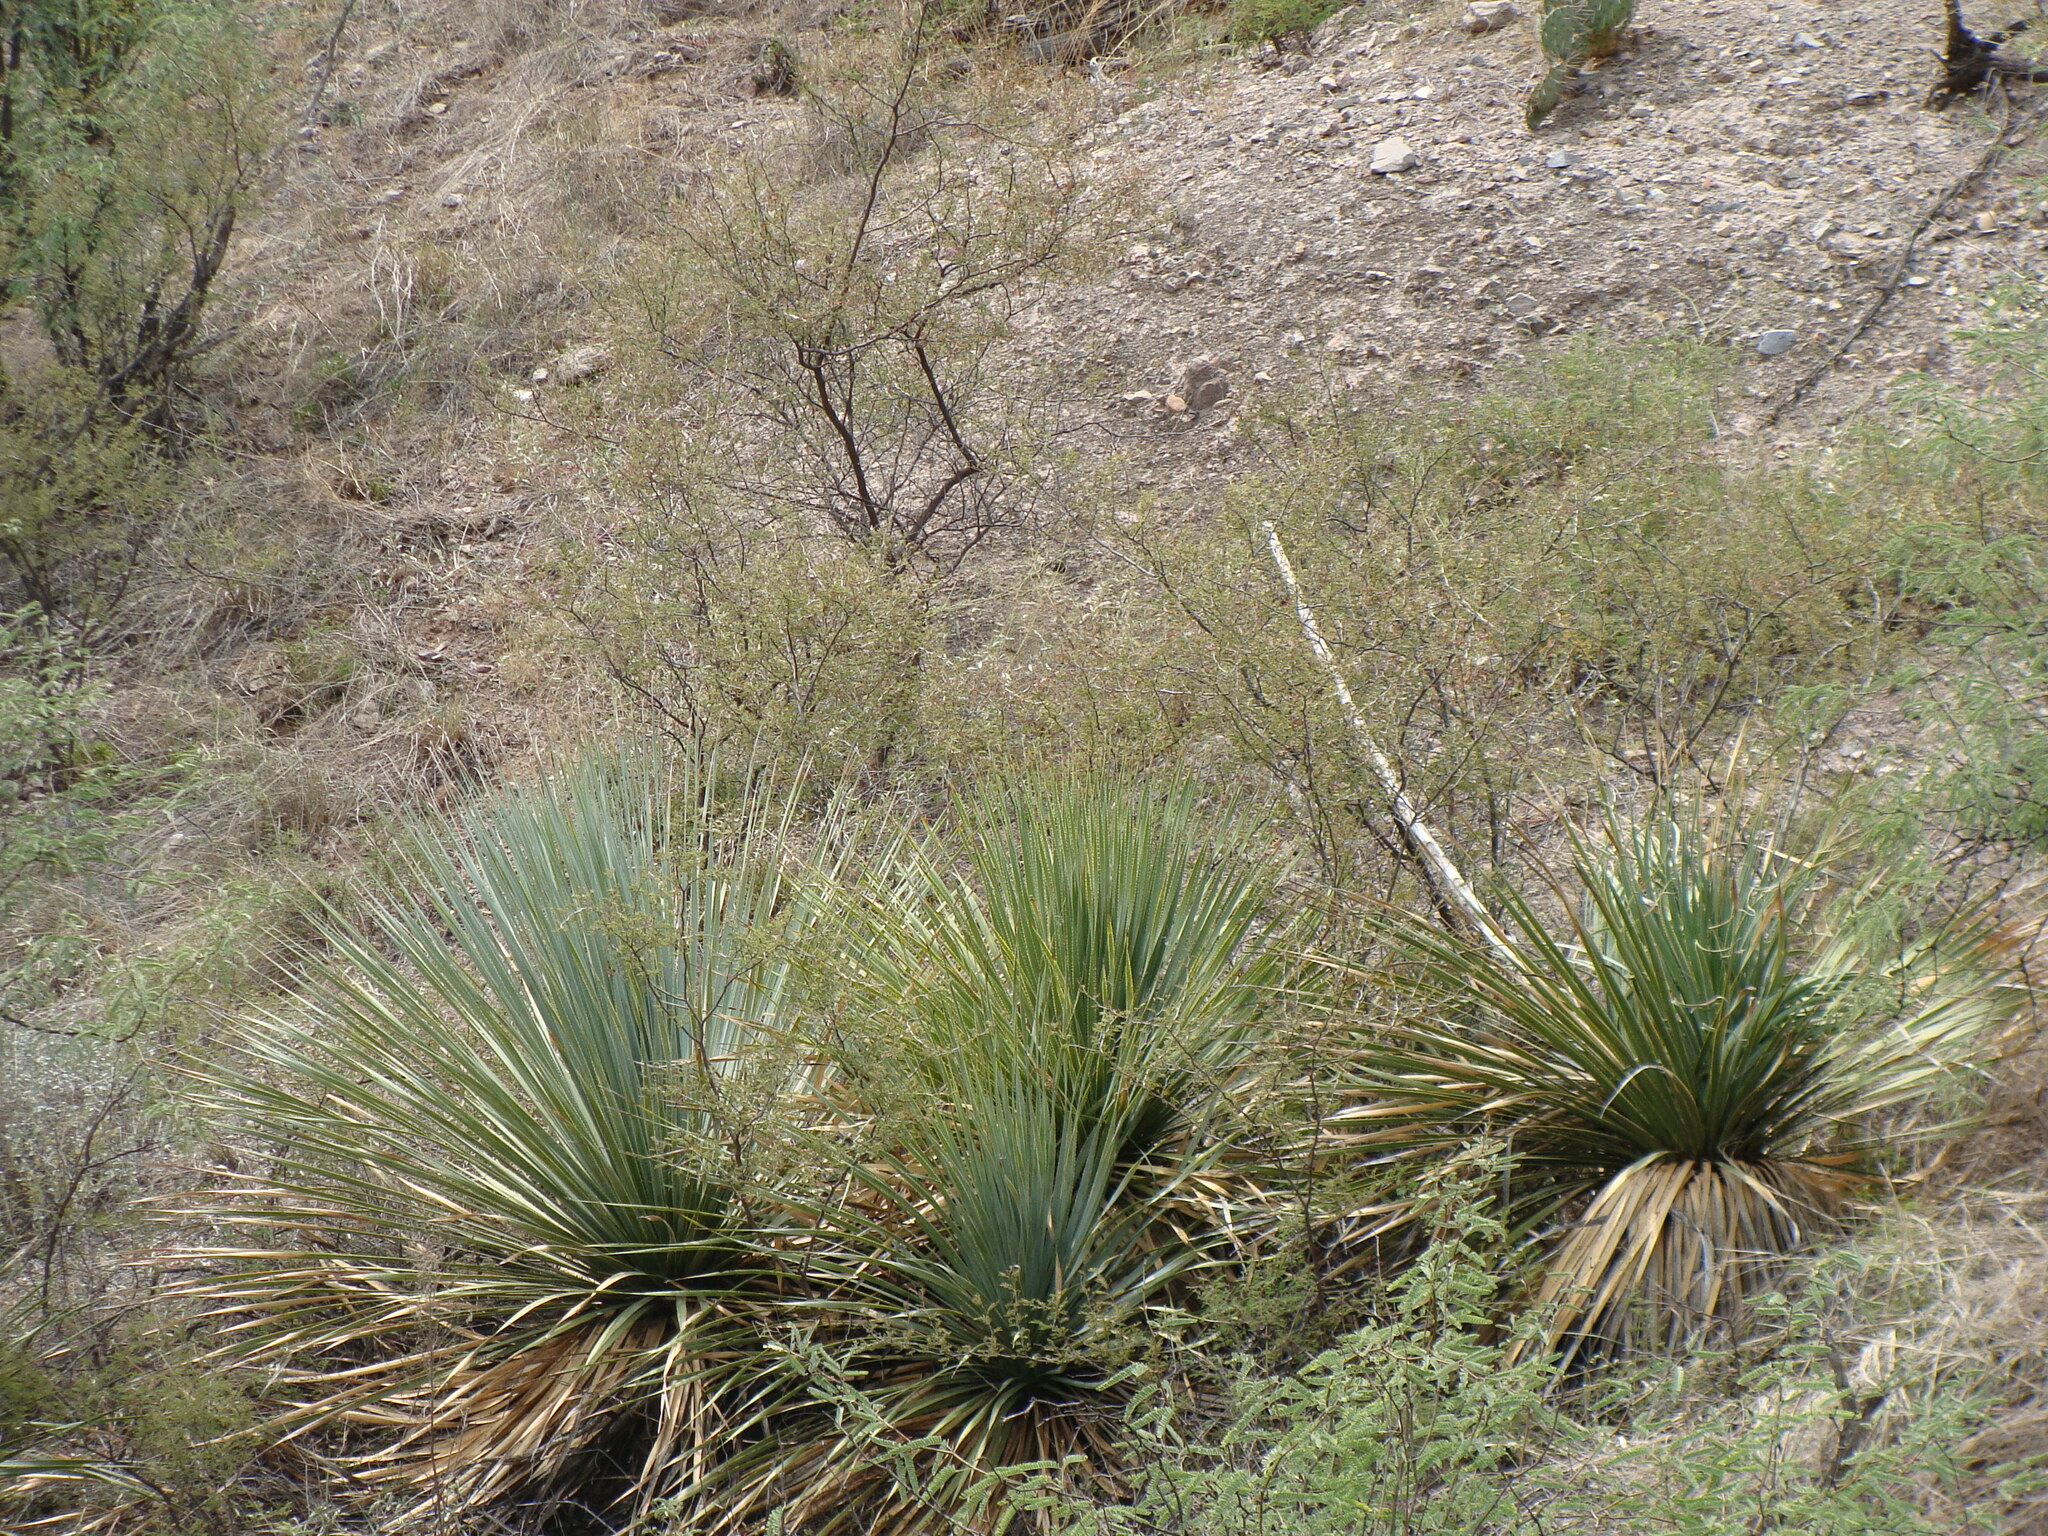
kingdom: Plantae
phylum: Tracheophyta
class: Liliopsida
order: Asparagales
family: Asparagaceae
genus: Dasylirion
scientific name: Dasylirion wheeleri
